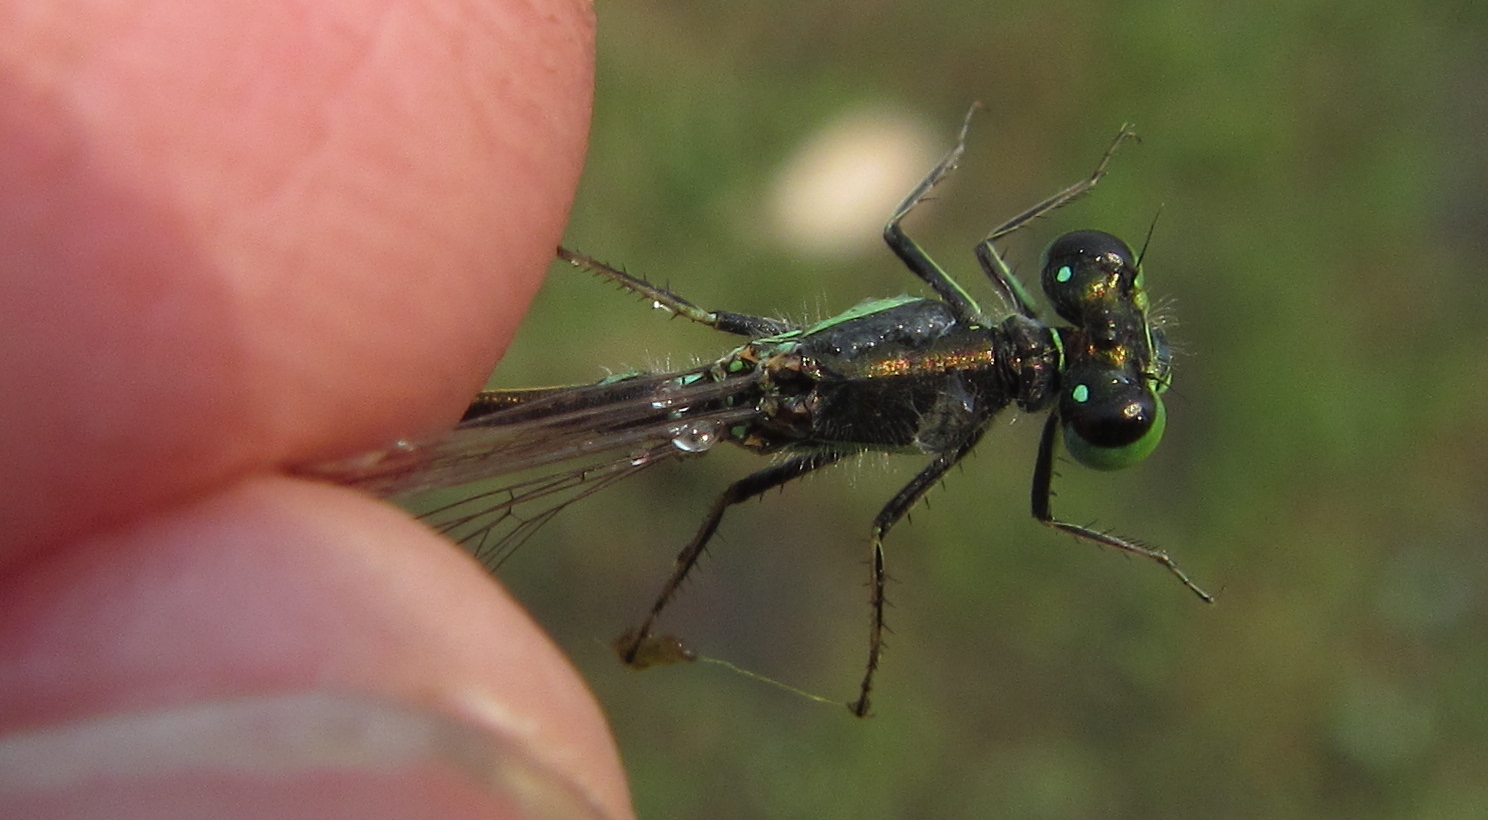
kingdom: Animalia
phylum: Arthropoda
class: Insecta
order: Odonata
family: Coenagrionidae
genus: Ischnura
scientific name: Ischnura senegalensis
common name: Tropical bluetail
